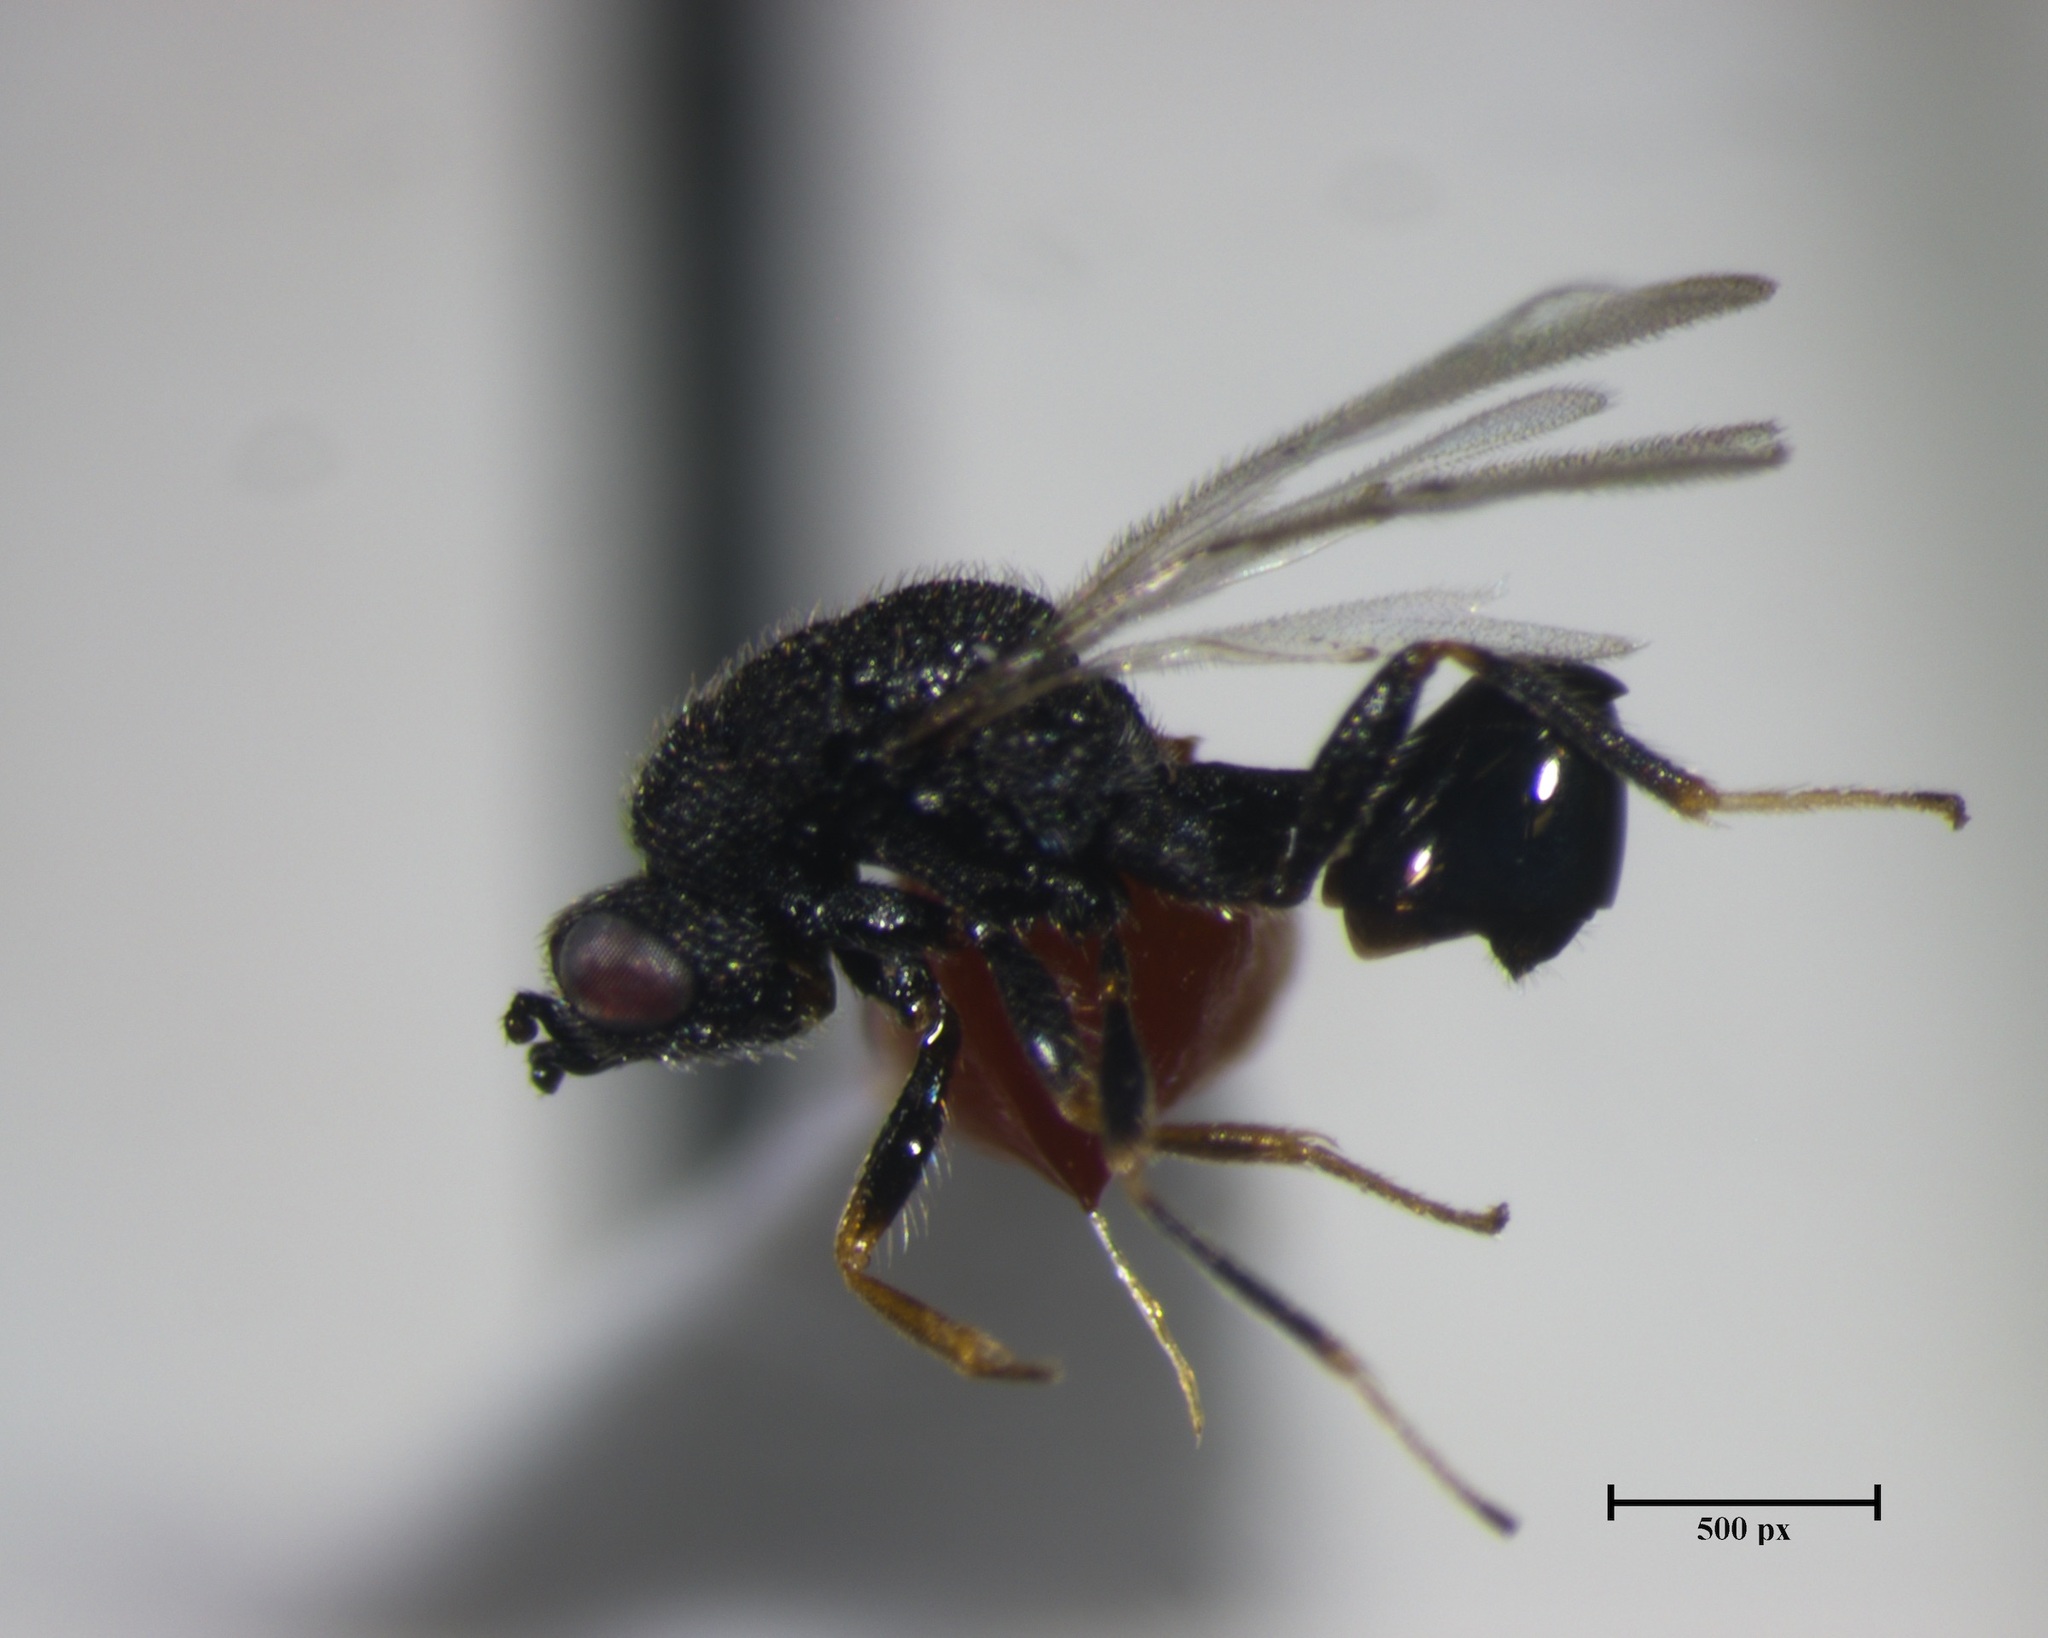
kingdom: Animalia
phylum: Arthropoda
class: Insecta
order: Hymenoptera
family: Eurytomidae
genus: Eurytoma
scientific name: Eurytoma longavena
